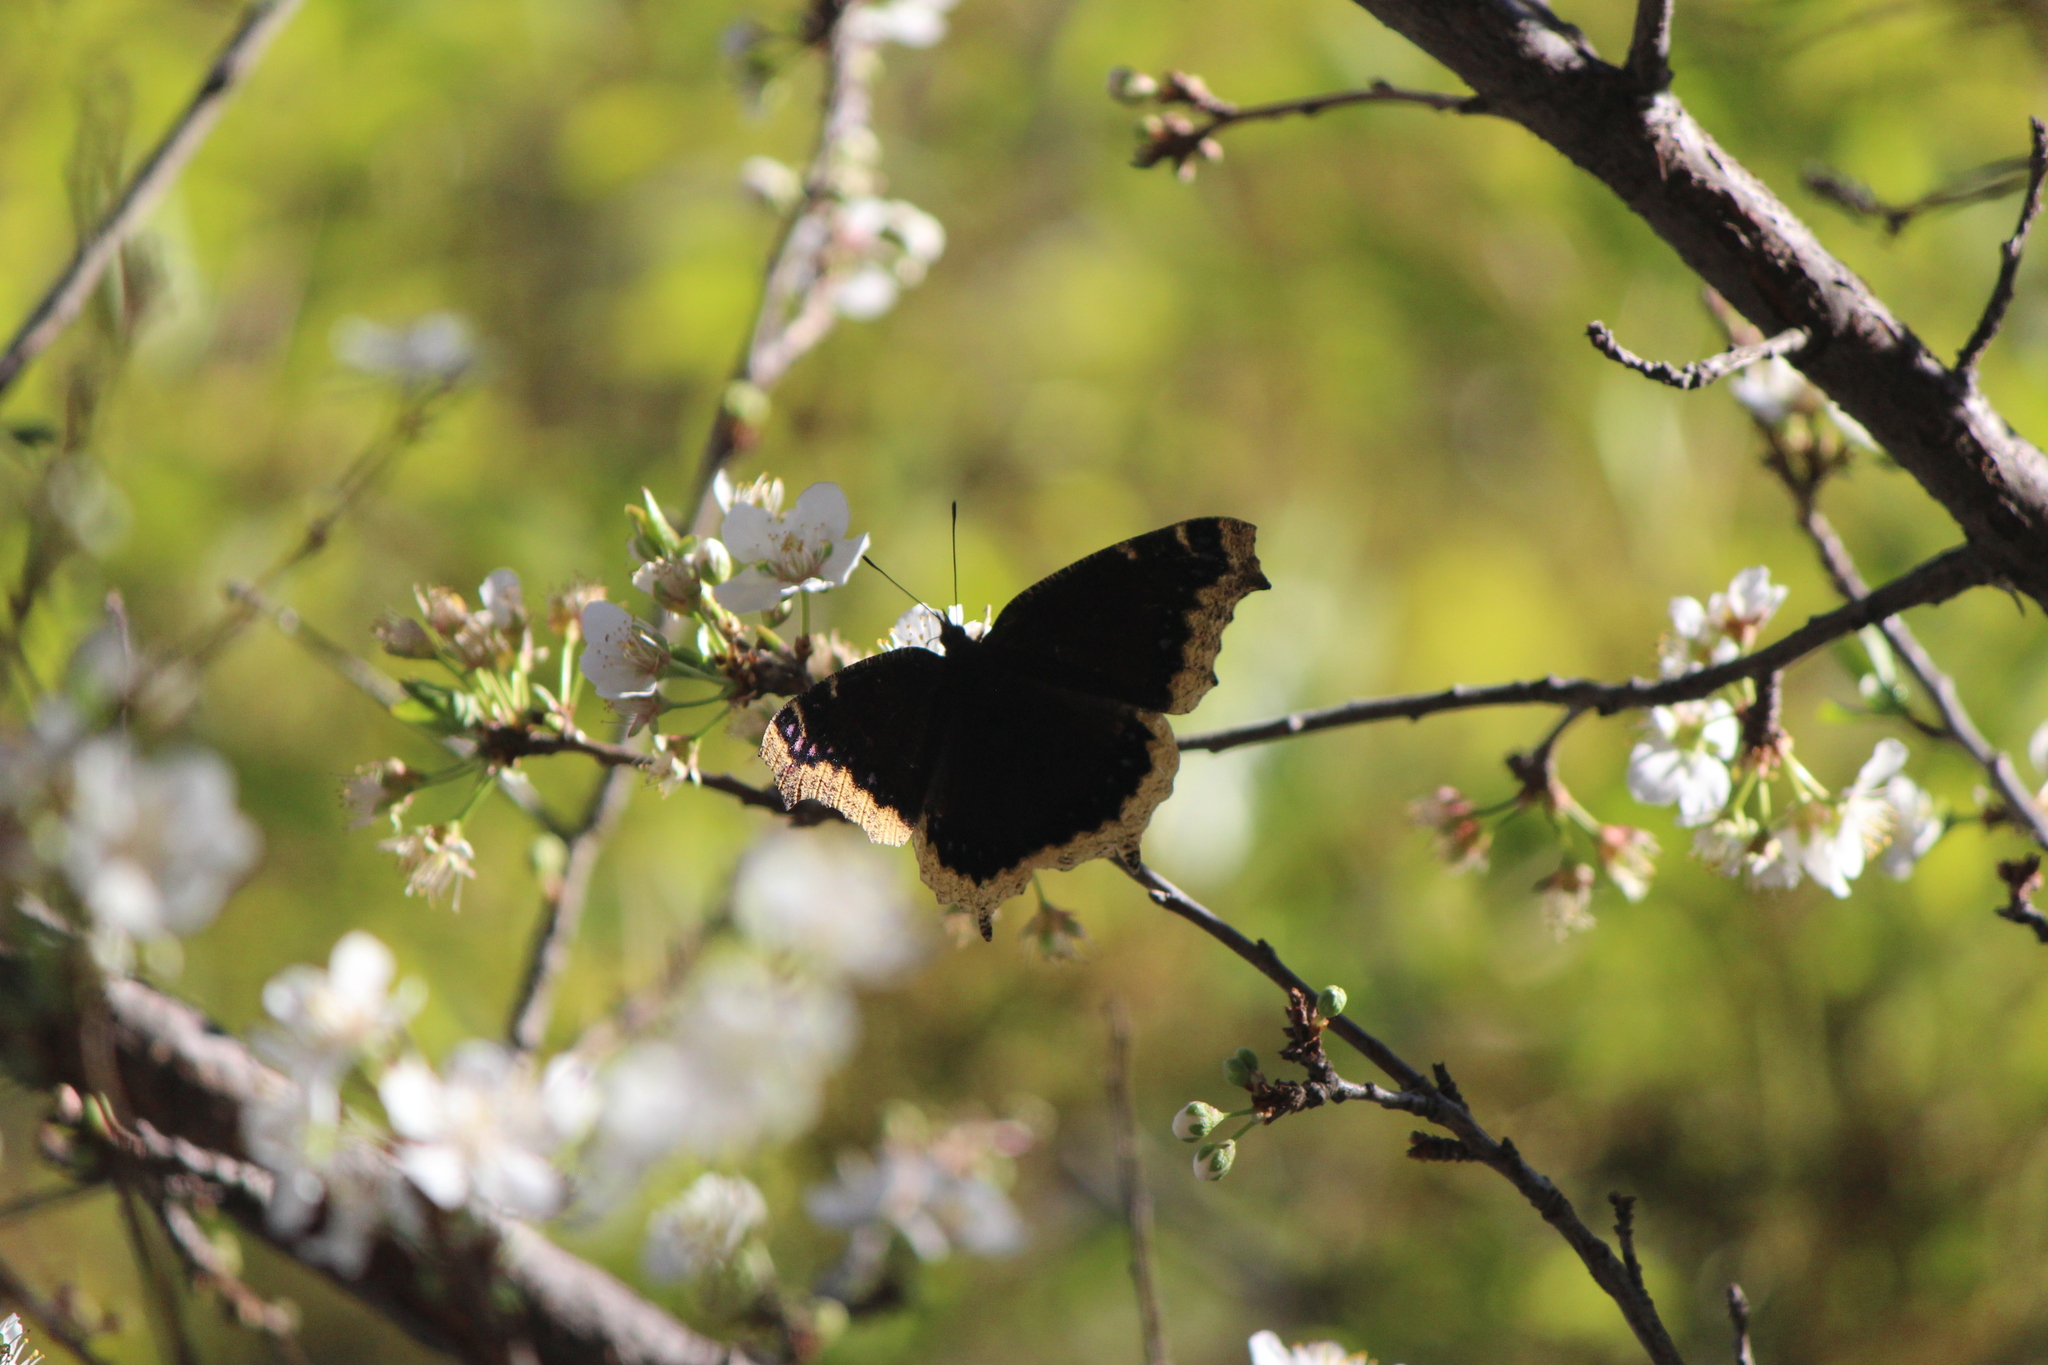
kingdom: Animalia
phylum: Arthropoda
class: Insecta
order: Lepidoptera
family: Nymphalidae
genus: Nymphalis
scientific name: Nymphalis antiopa
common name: Camberwell beauty
